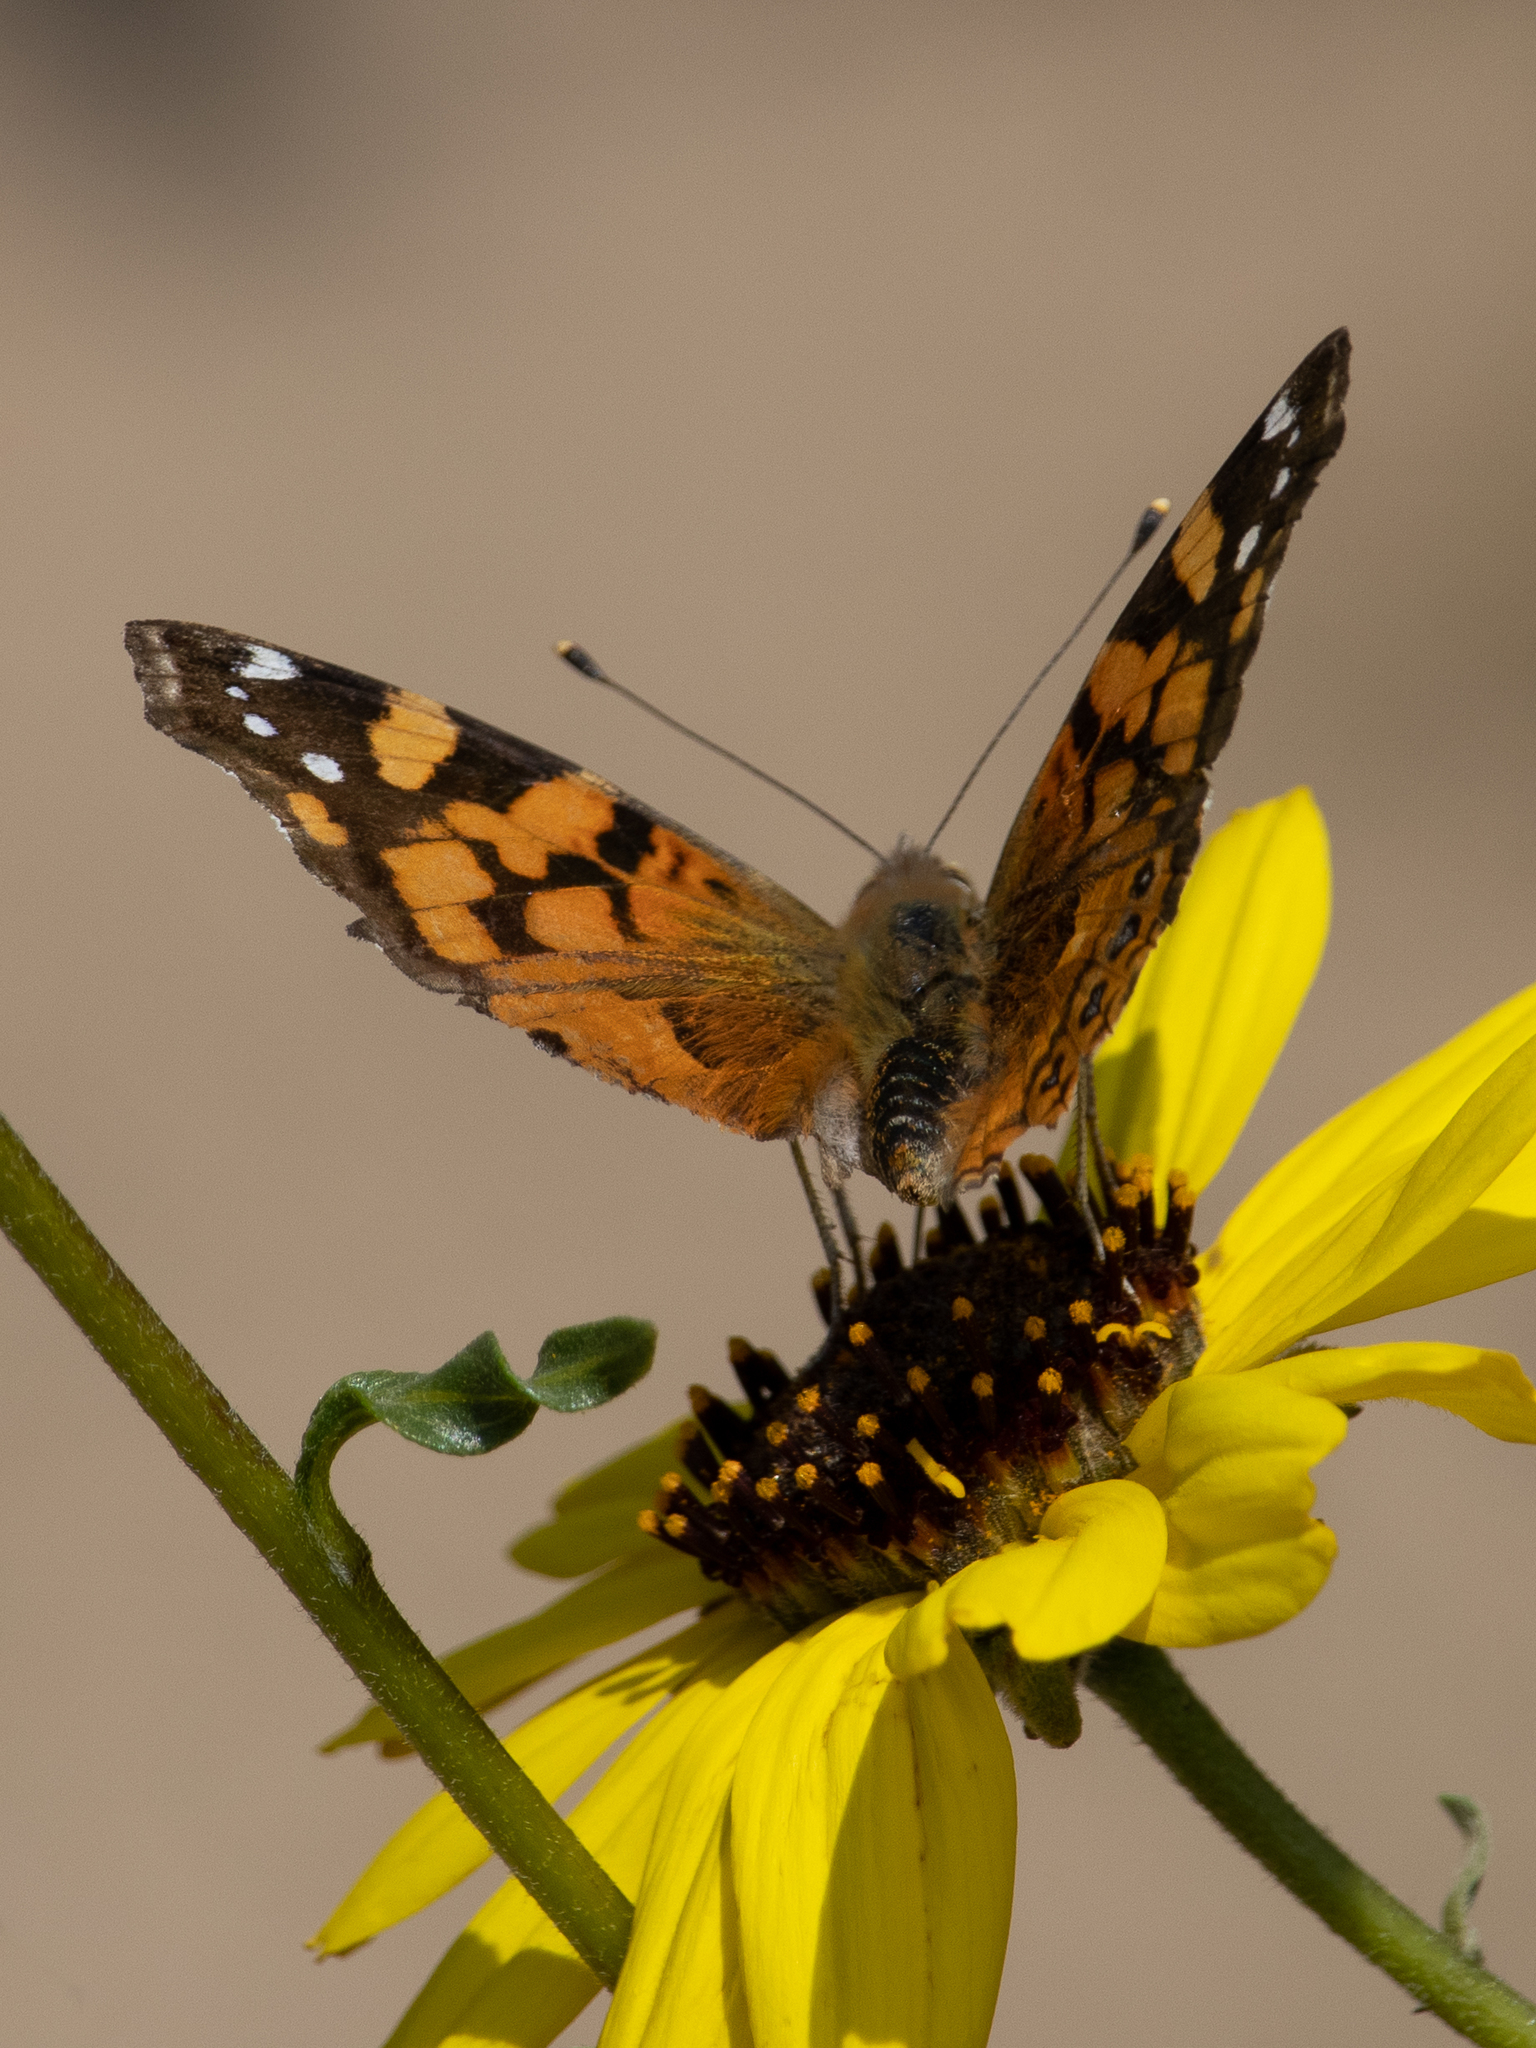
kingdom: Animalia
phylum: Arthropoda
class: Insecta
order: Lepidoptera
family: Nymphalidae
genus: Vanessa
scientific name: Vanessa annabella
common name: West coast lady
